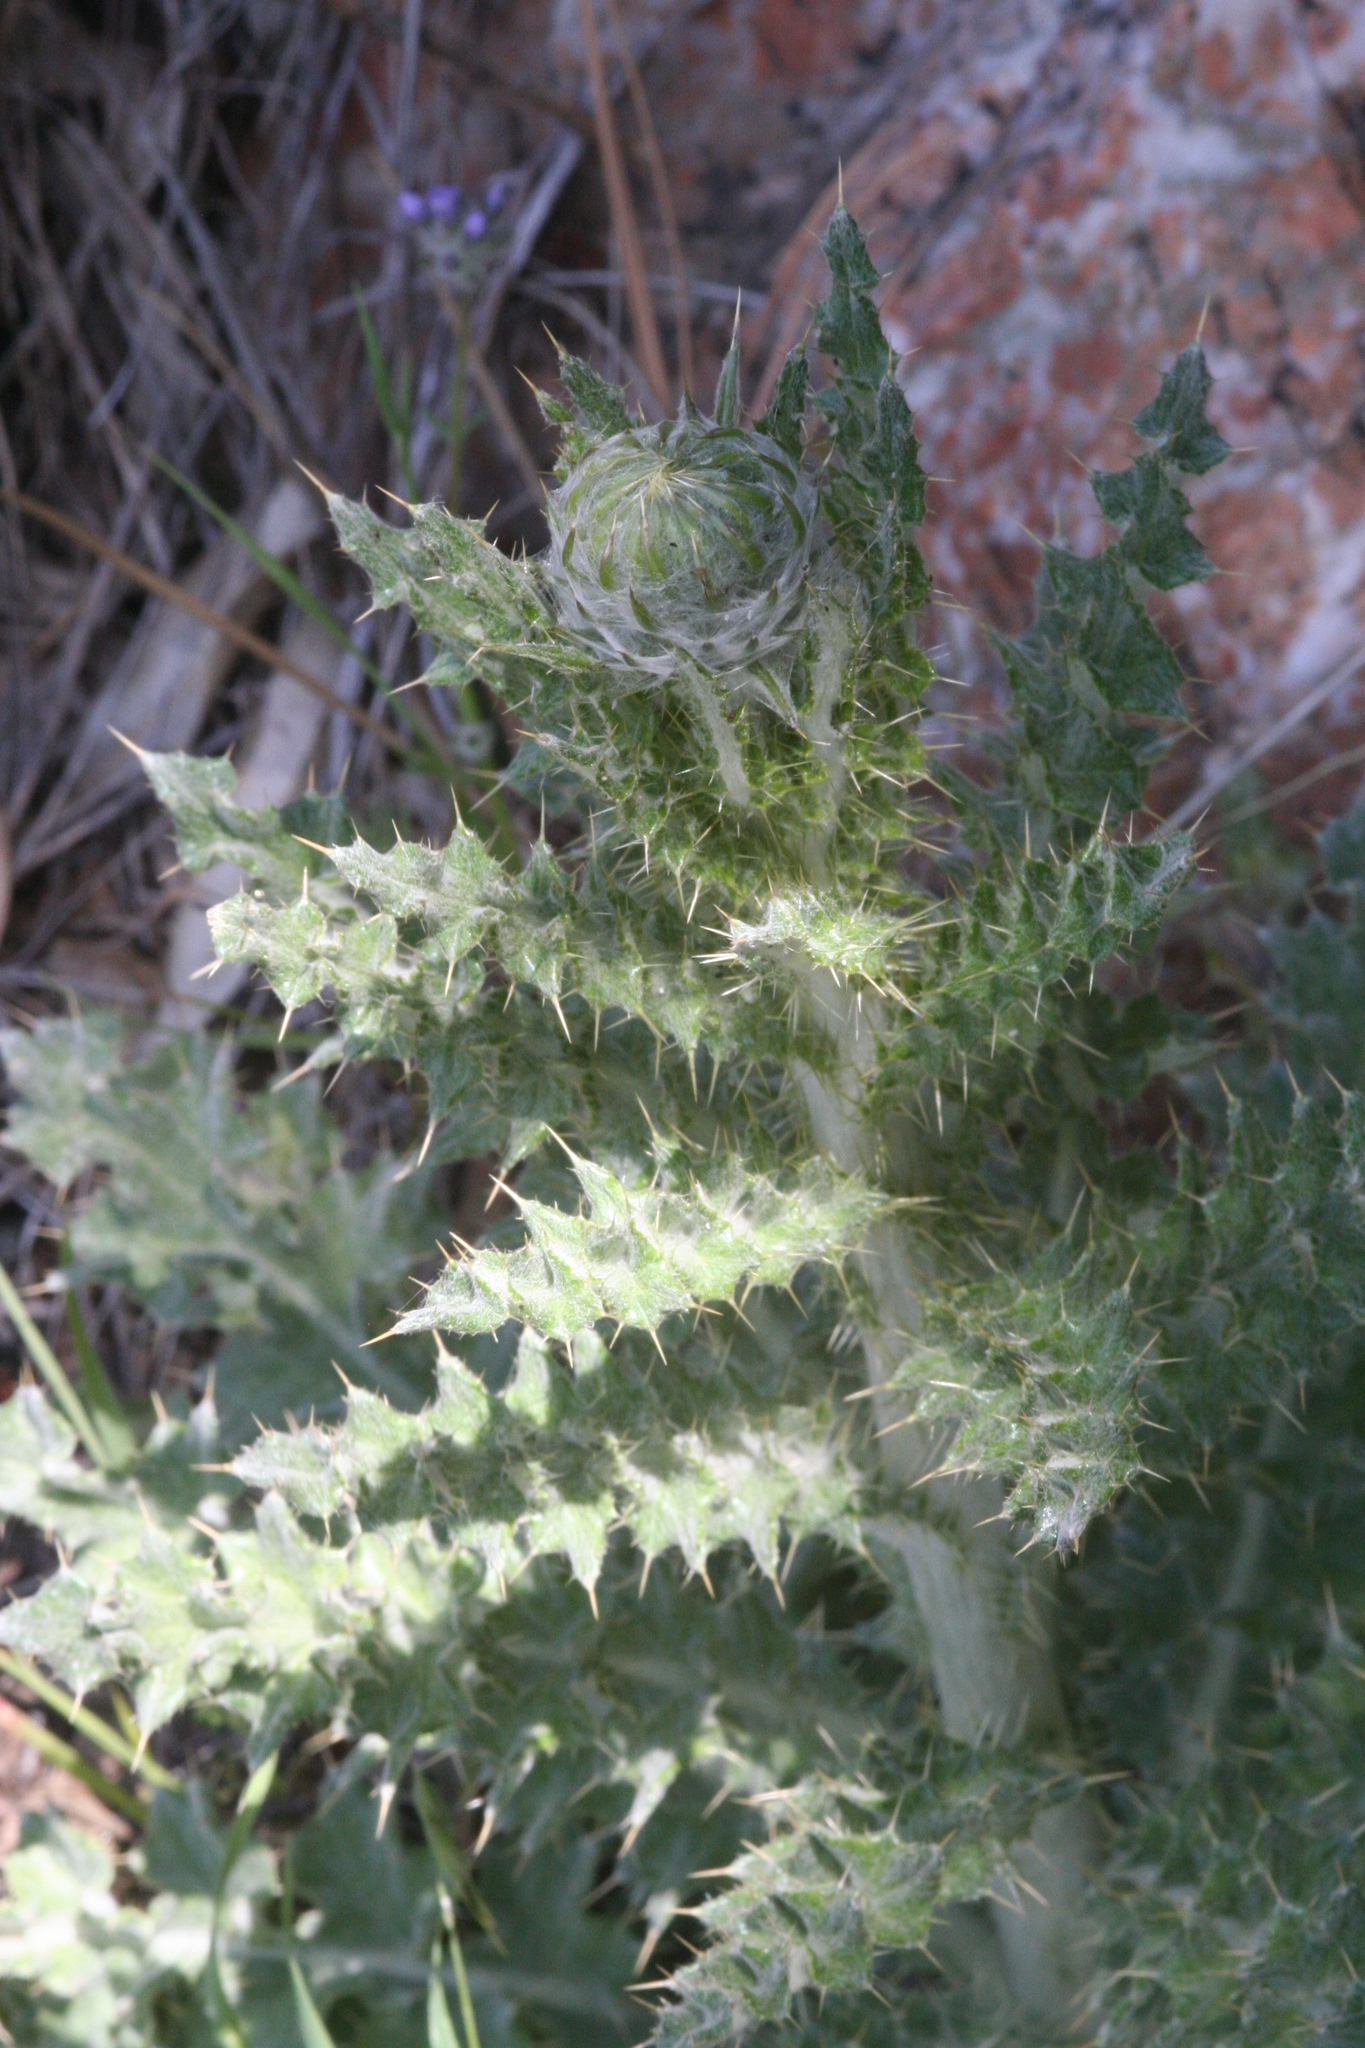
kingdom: Plantae
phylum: Tracheophyta
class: Magnoliopsida
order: Asterales
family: Asteraceae
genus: Cirsium
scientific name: Cirsium occidentale
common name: Western thistle
